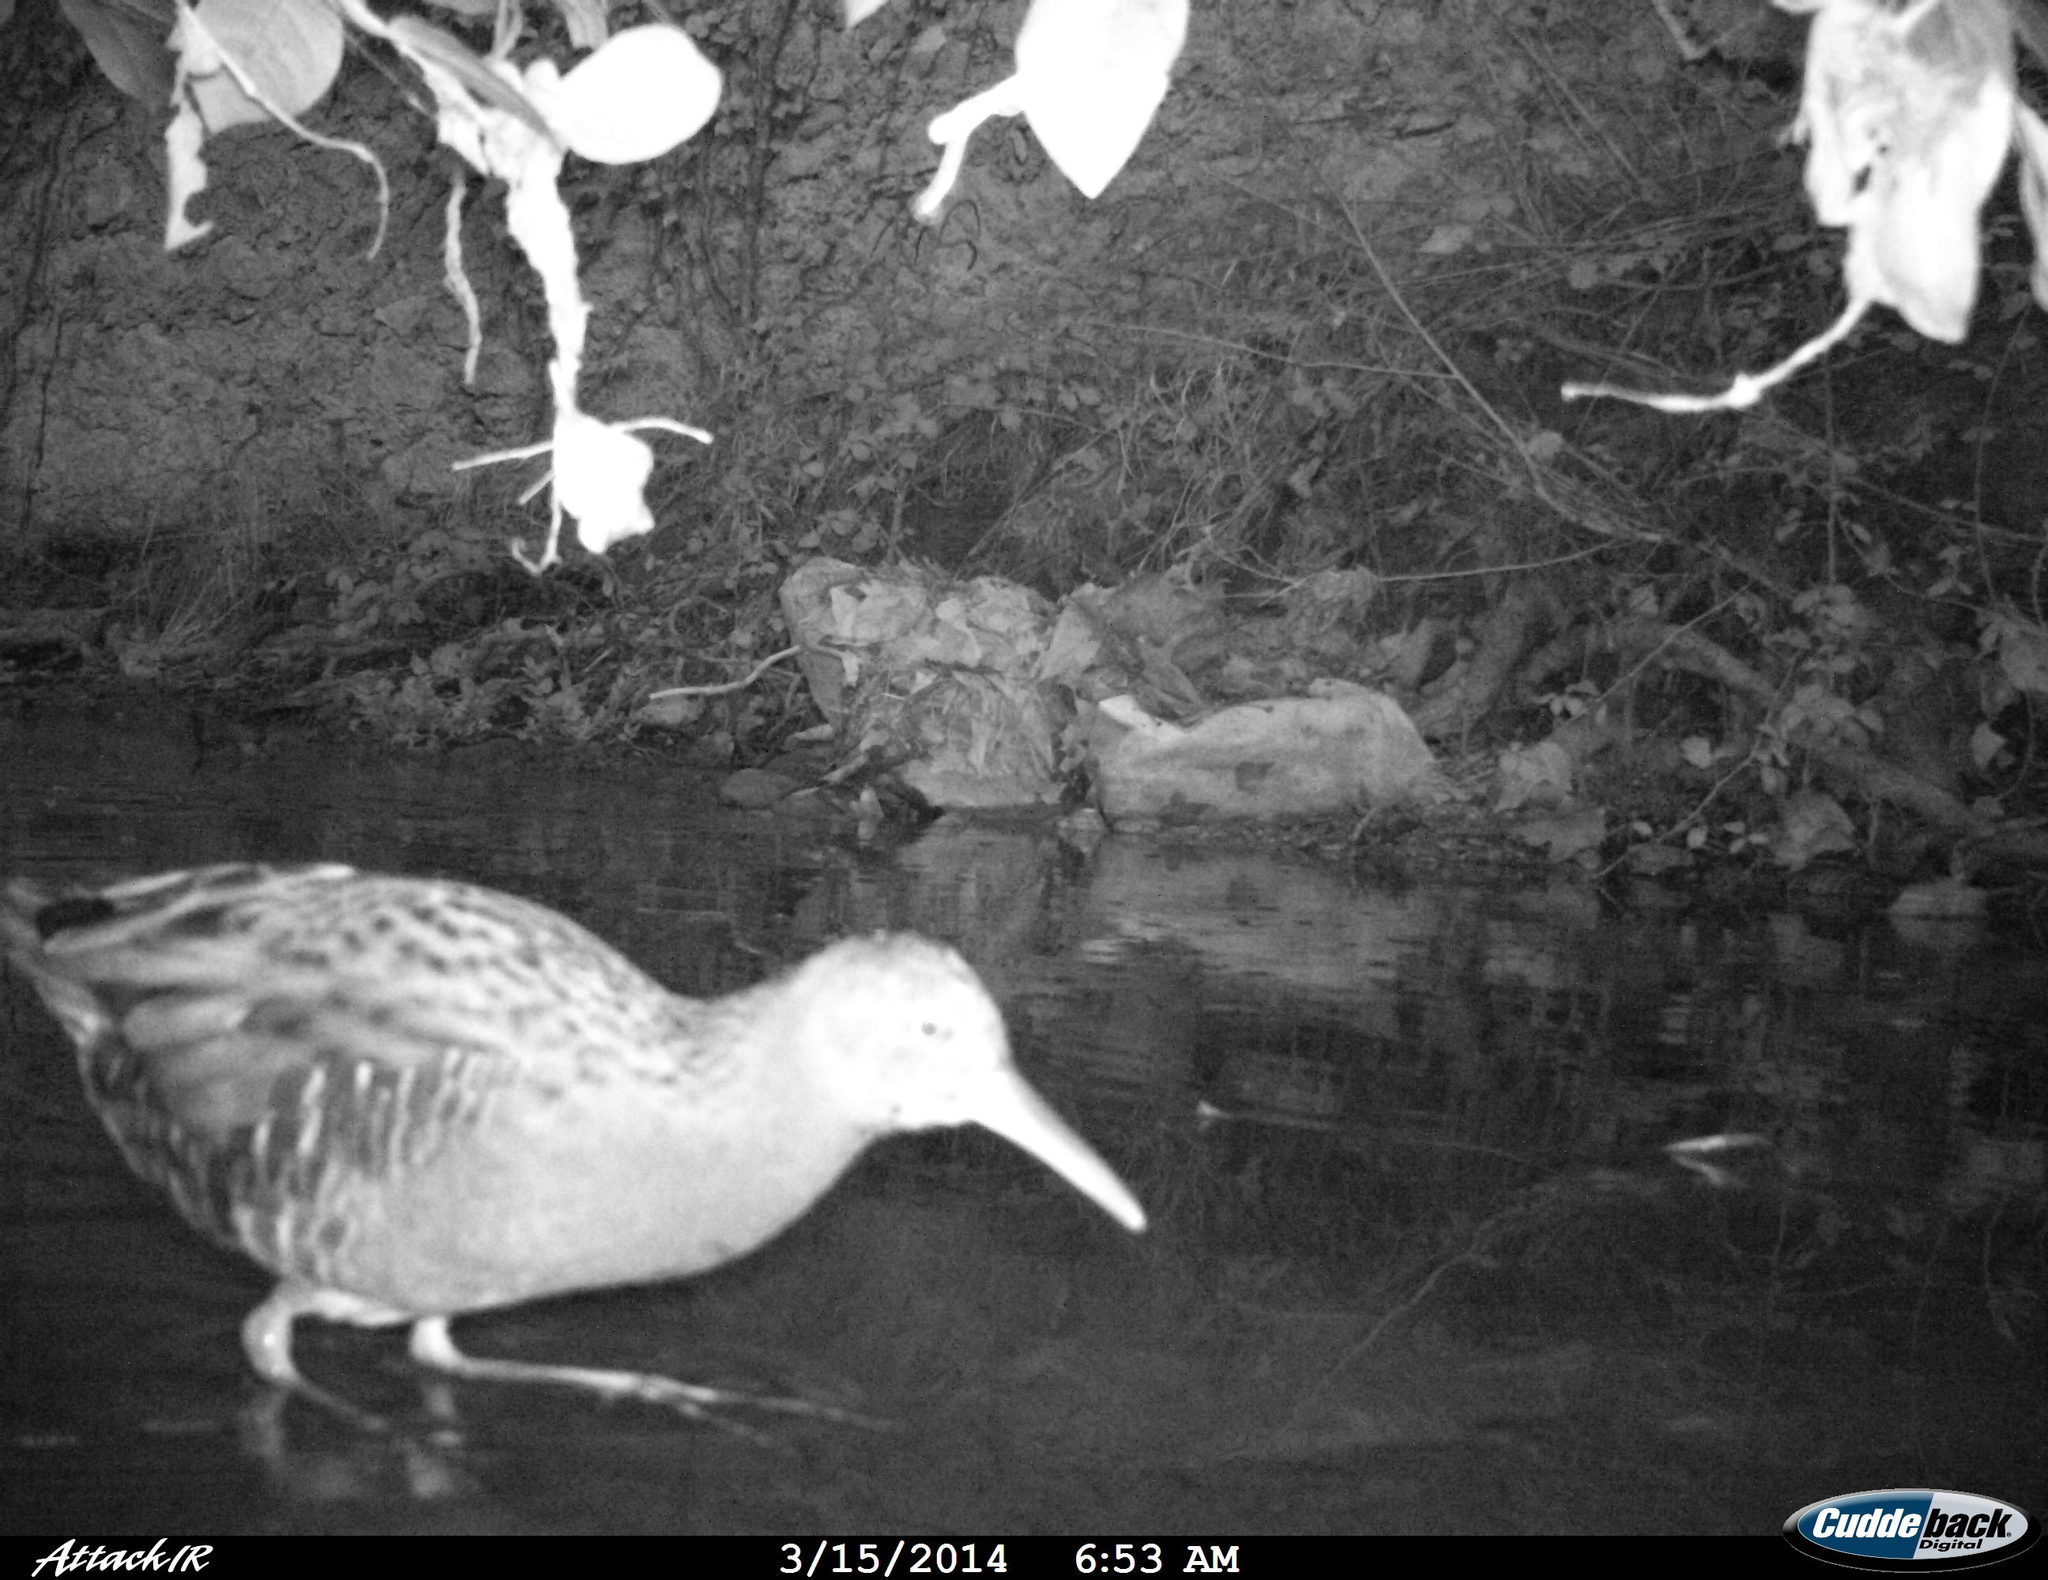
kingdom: Animalia
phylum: Chordata
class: Aves
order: Gruiformes
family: Rallidae
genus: Rallus
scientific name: Rallus aquaticus
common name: Water rail
